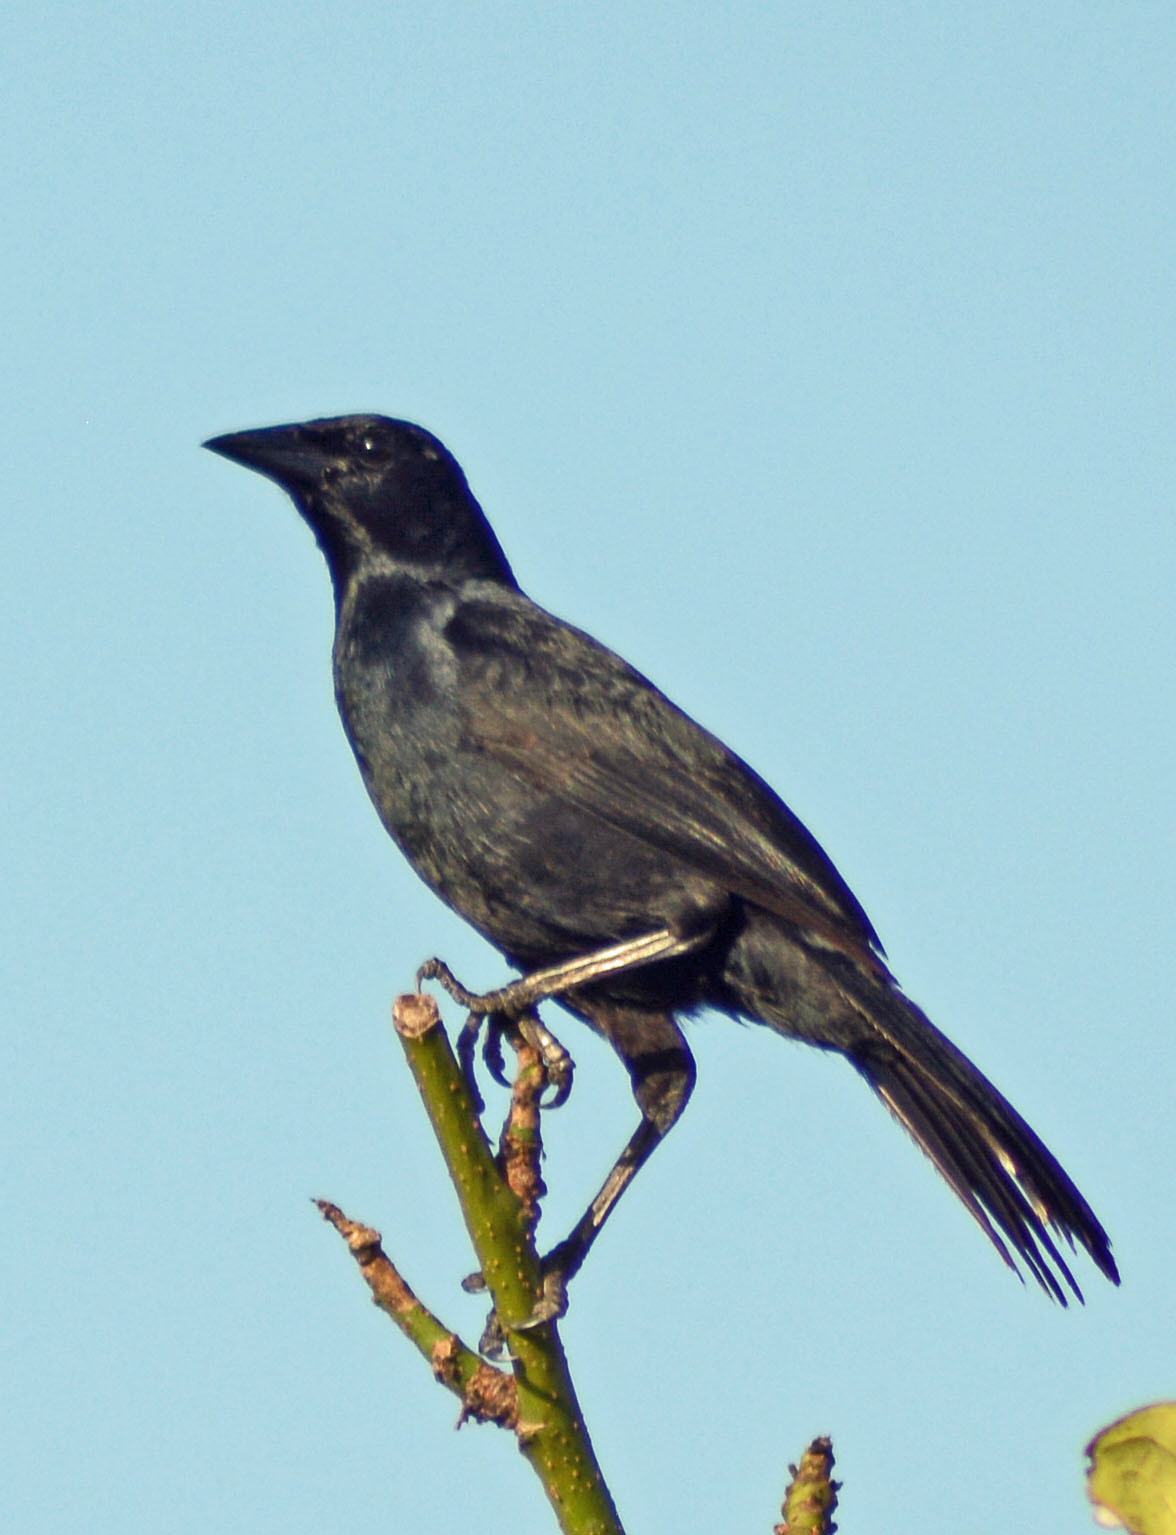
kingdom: Animalia
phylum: Chordata
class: Aves
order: Passeriformes
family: Icteridae
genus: Dives
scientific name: Dives dives
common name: Melodious blackbird
